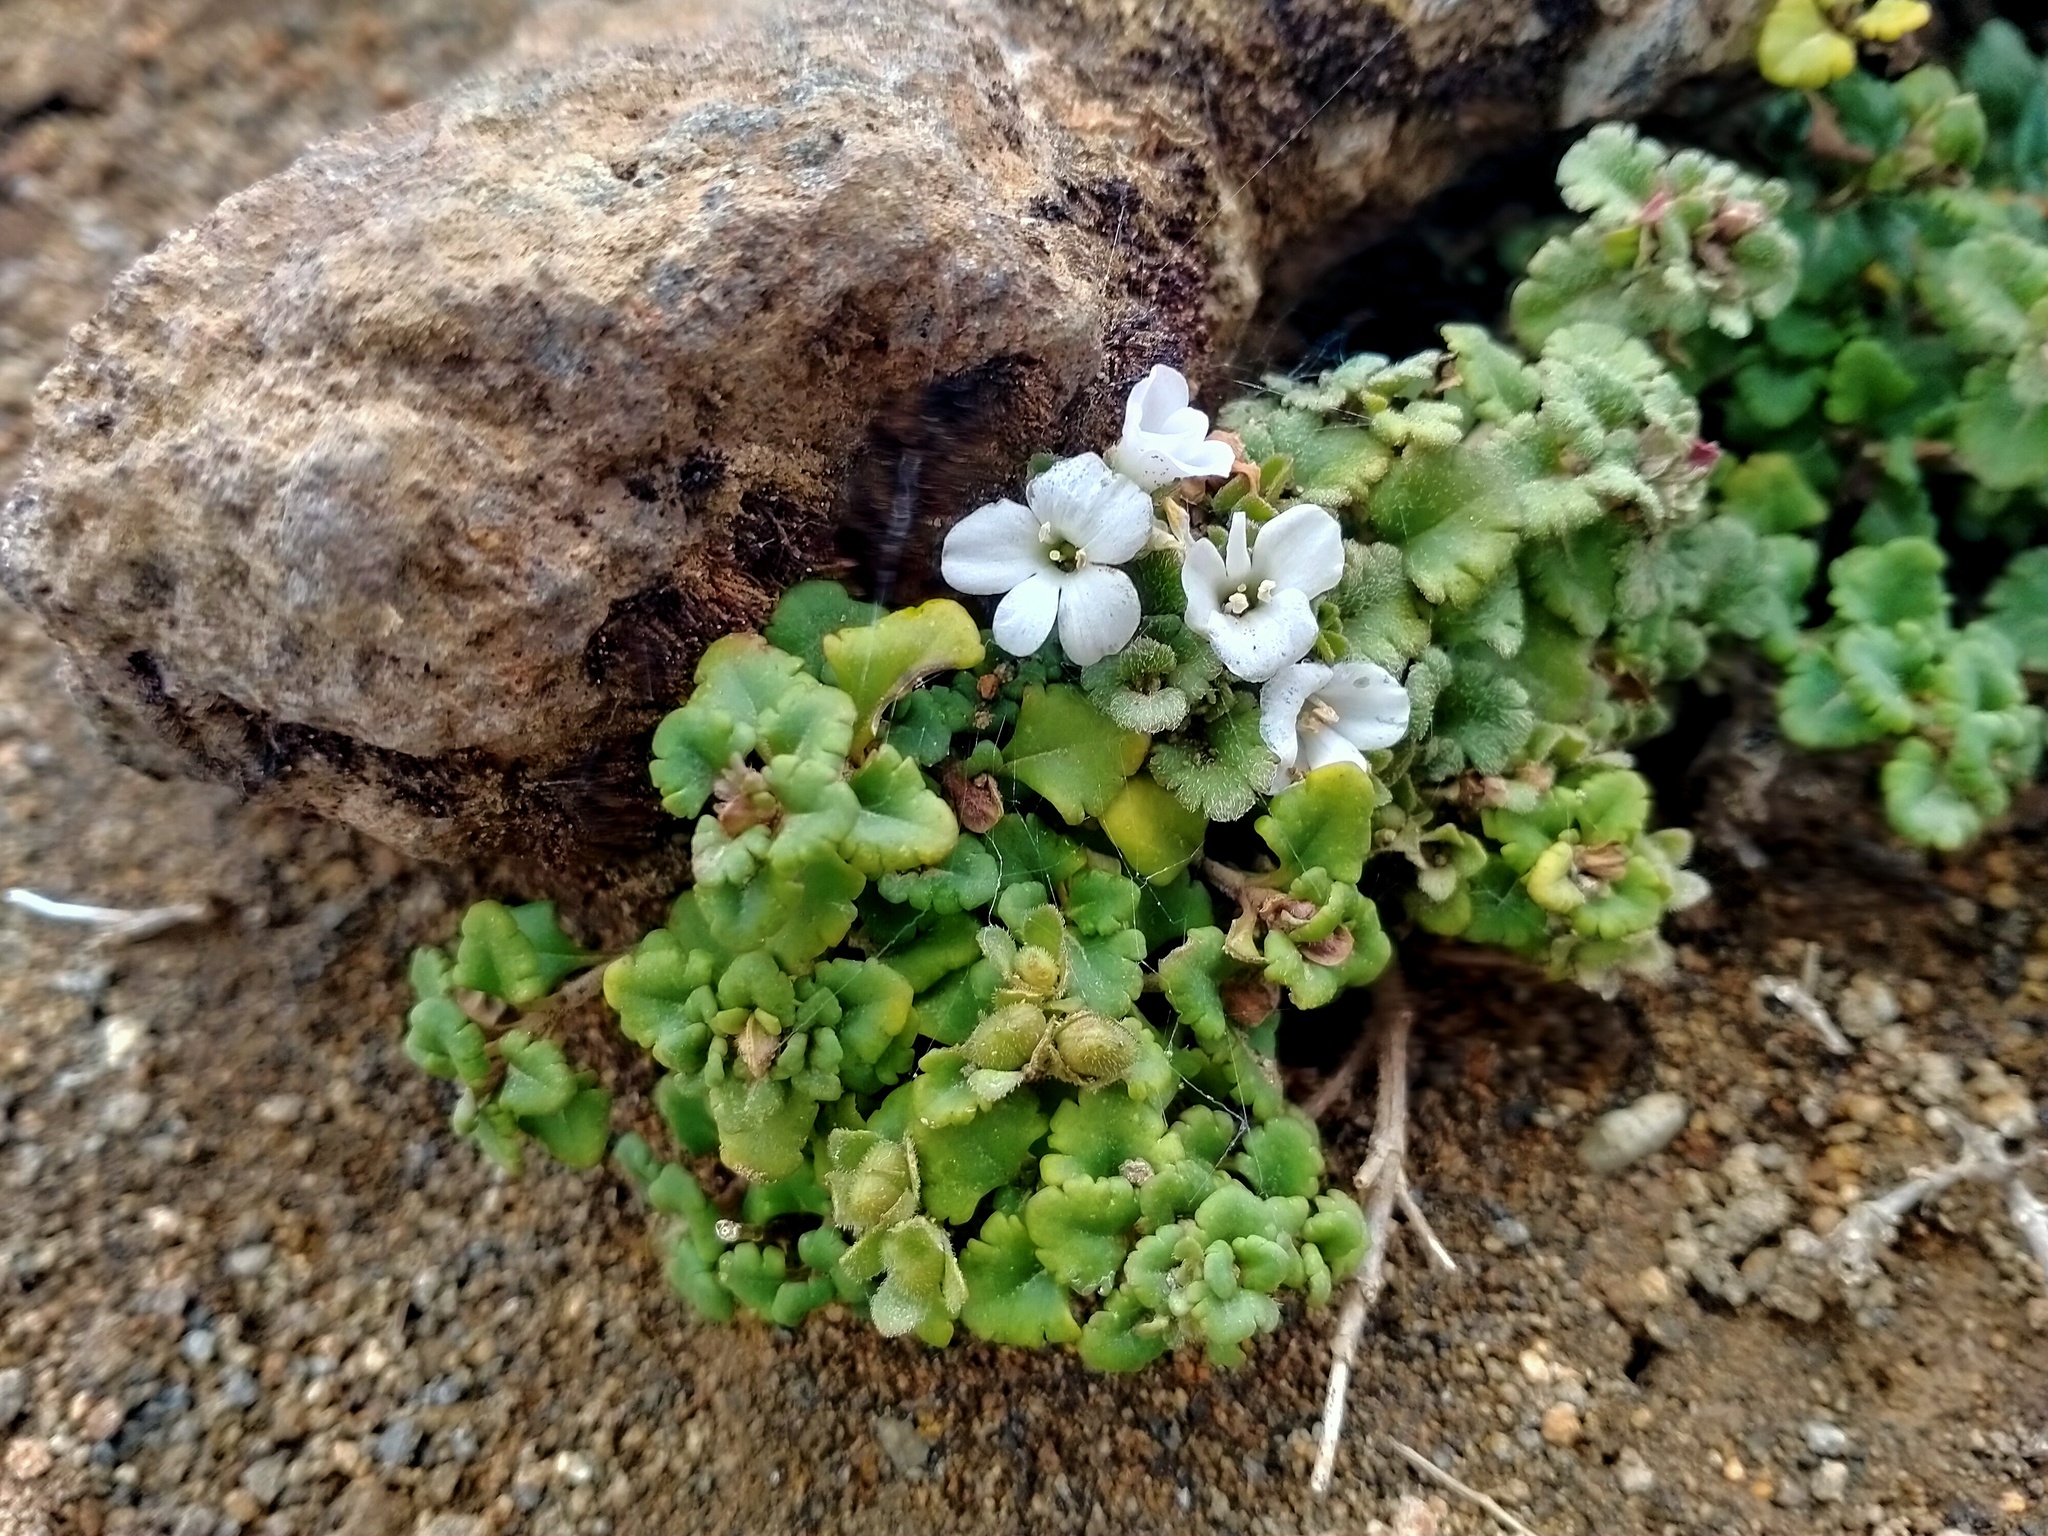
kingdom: Plantae
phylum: Tracheophyta
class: Magnoliopsida
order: Lamiales
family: Plantaginaceae
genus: Veronica
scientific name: Veronica spathulata
